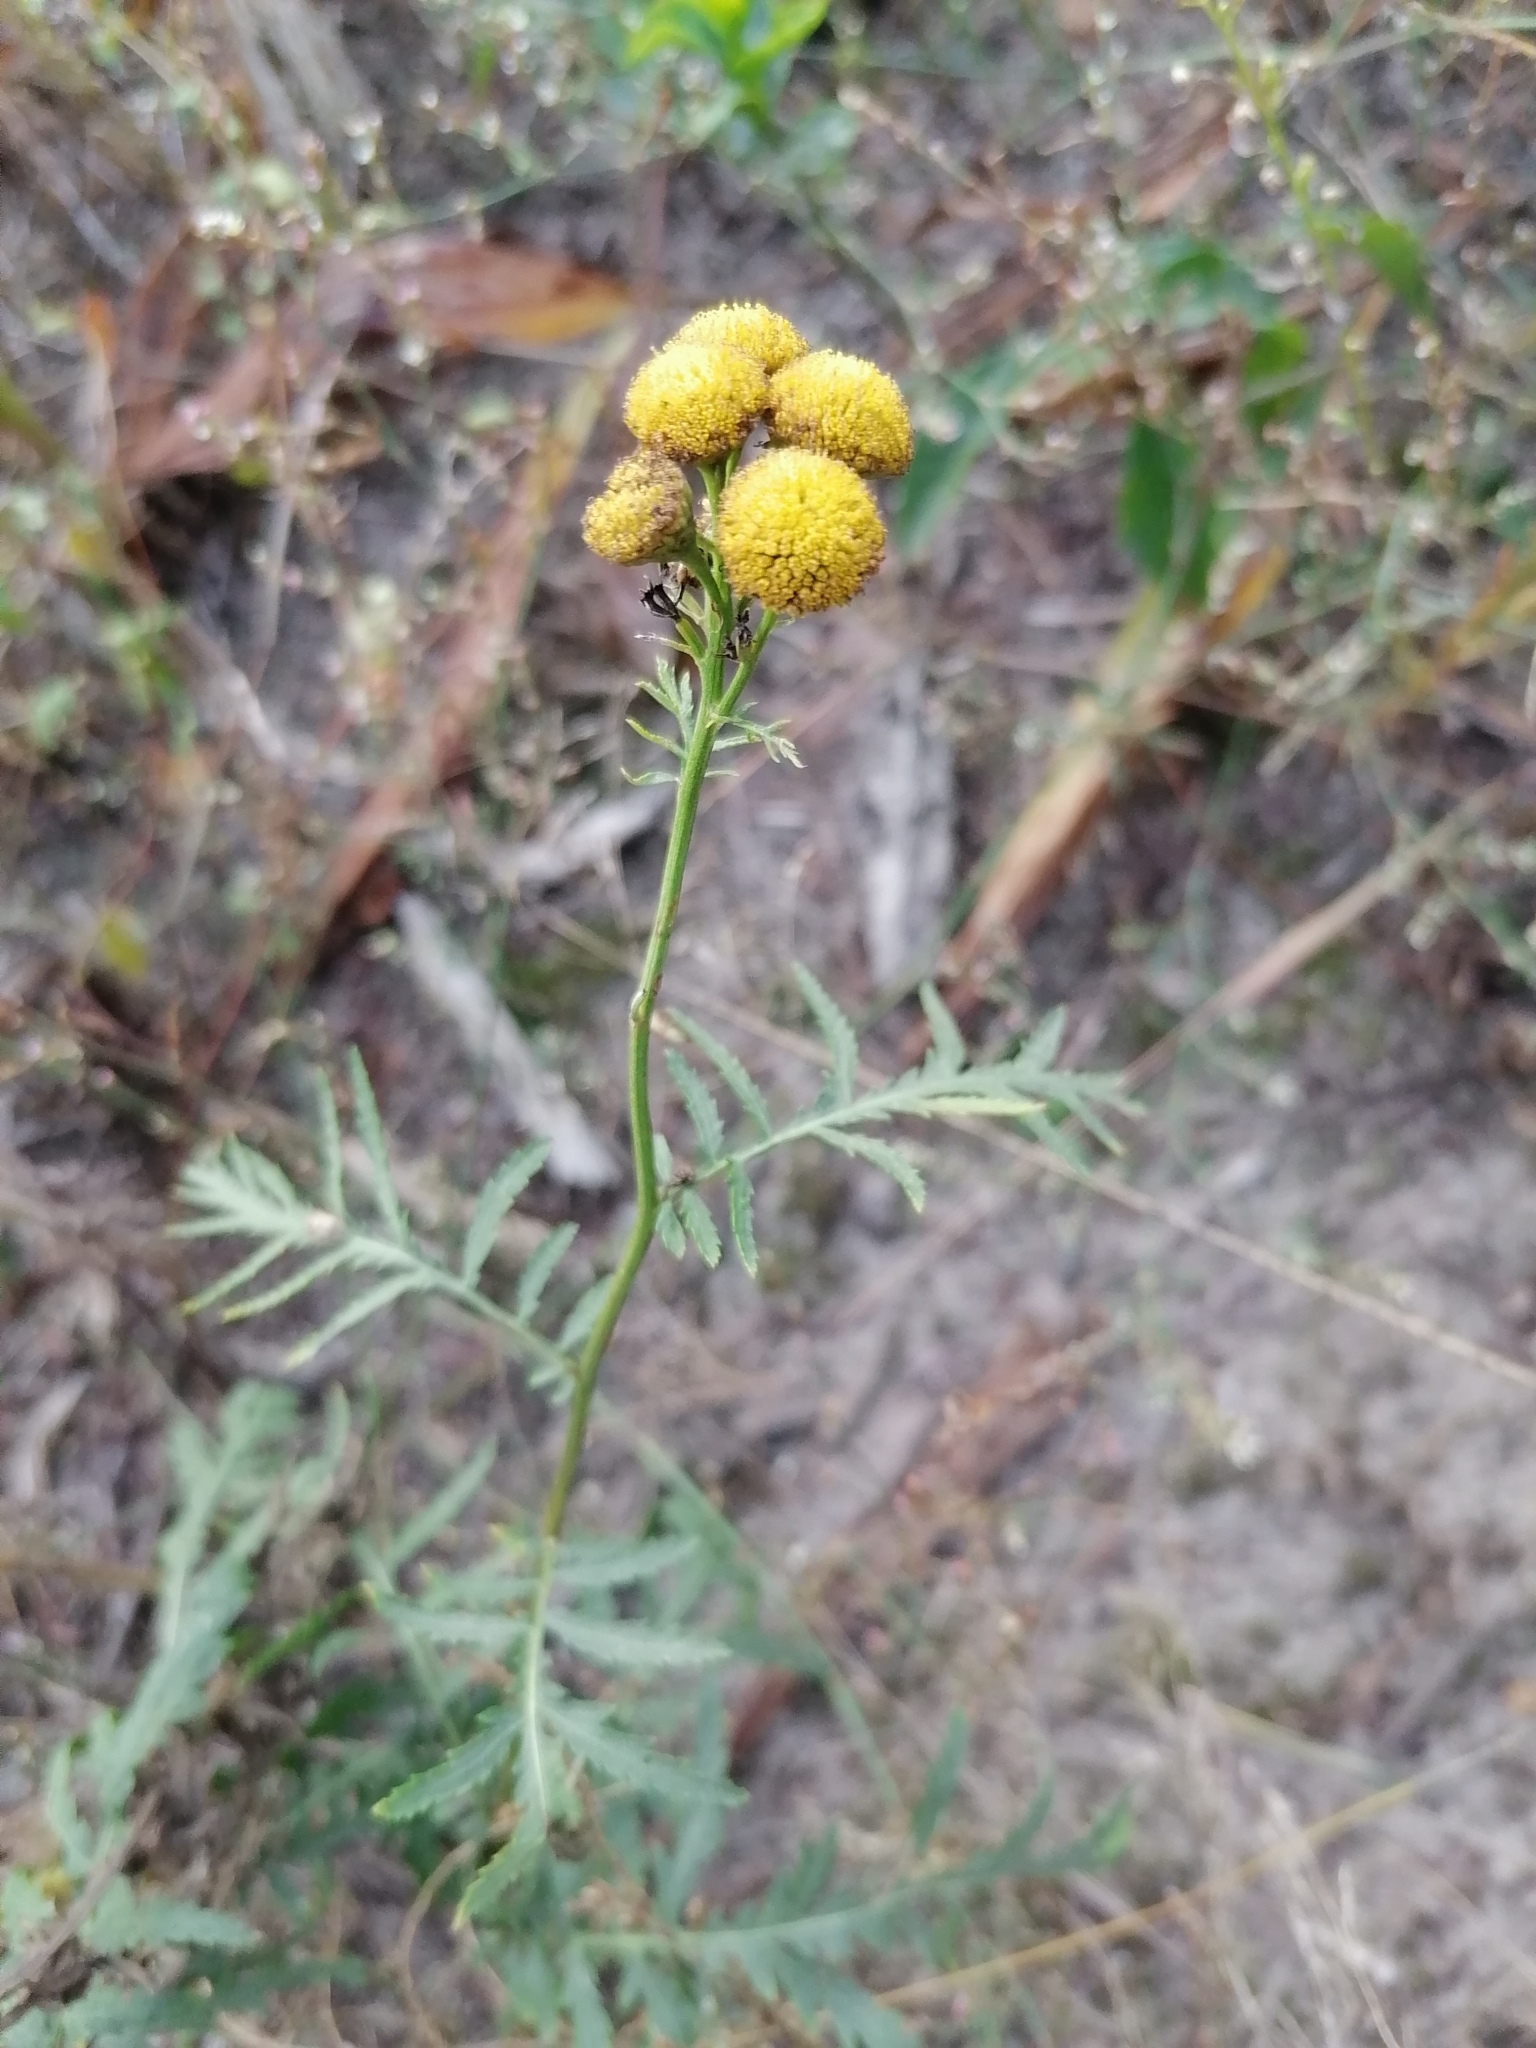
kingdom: Plantae
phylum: Tracheophyta
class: Magnoliopsida
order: Asterales
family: Asteraceae
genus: Tanacetum
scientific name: Tanacetum vulgare
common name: Common tansy
